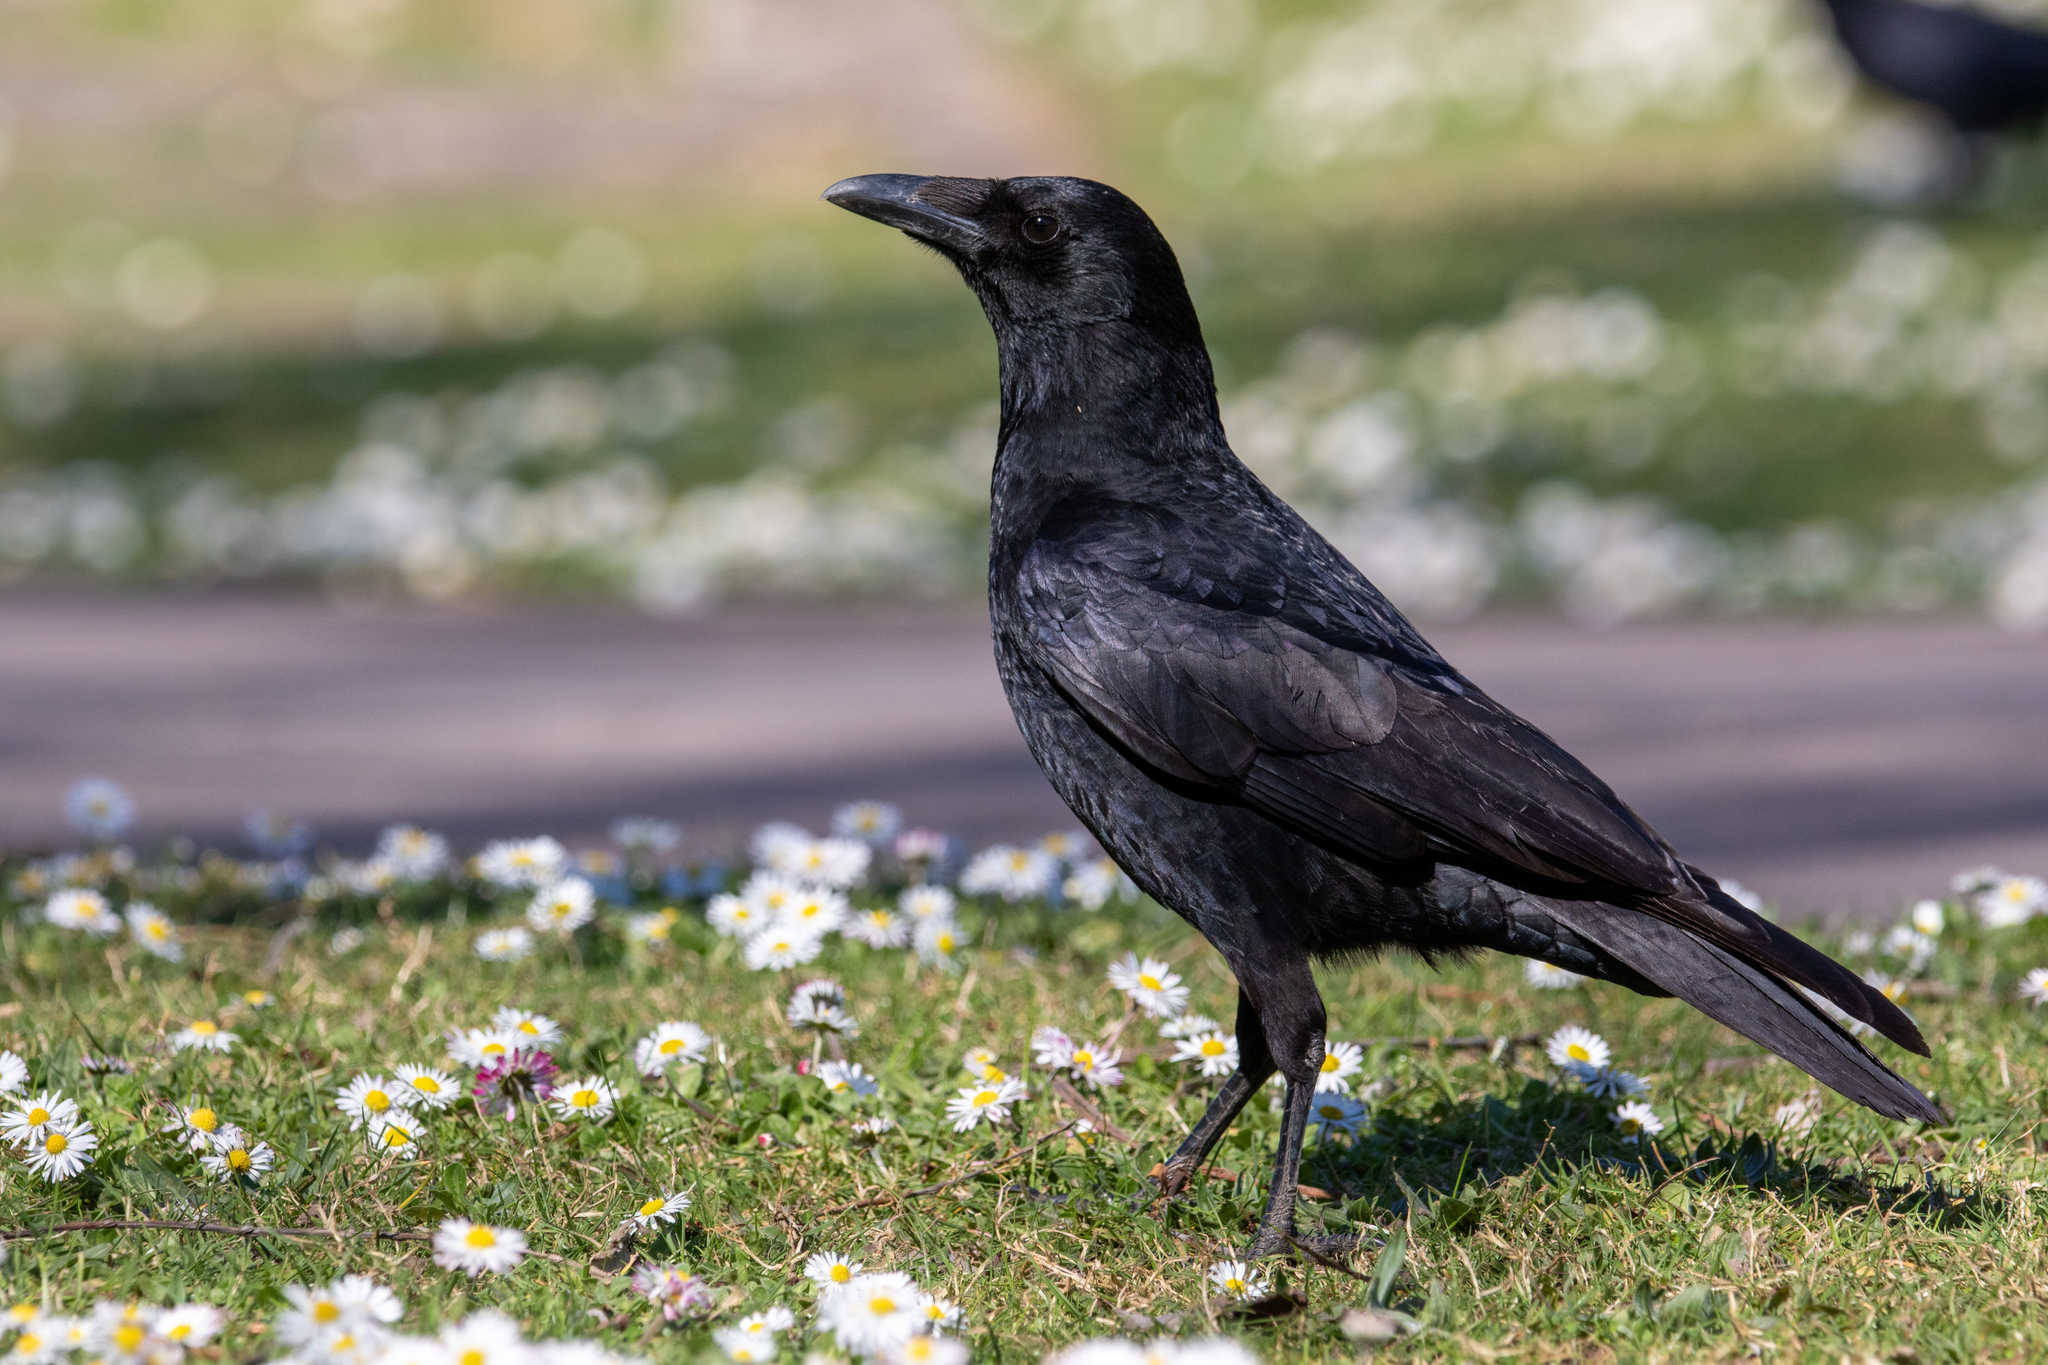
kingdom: Animalia
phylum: Chordata
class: Aves
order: Passeriformes
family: Corvidae
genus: Corvus
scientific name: Corvus corone
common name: Carrion crow
